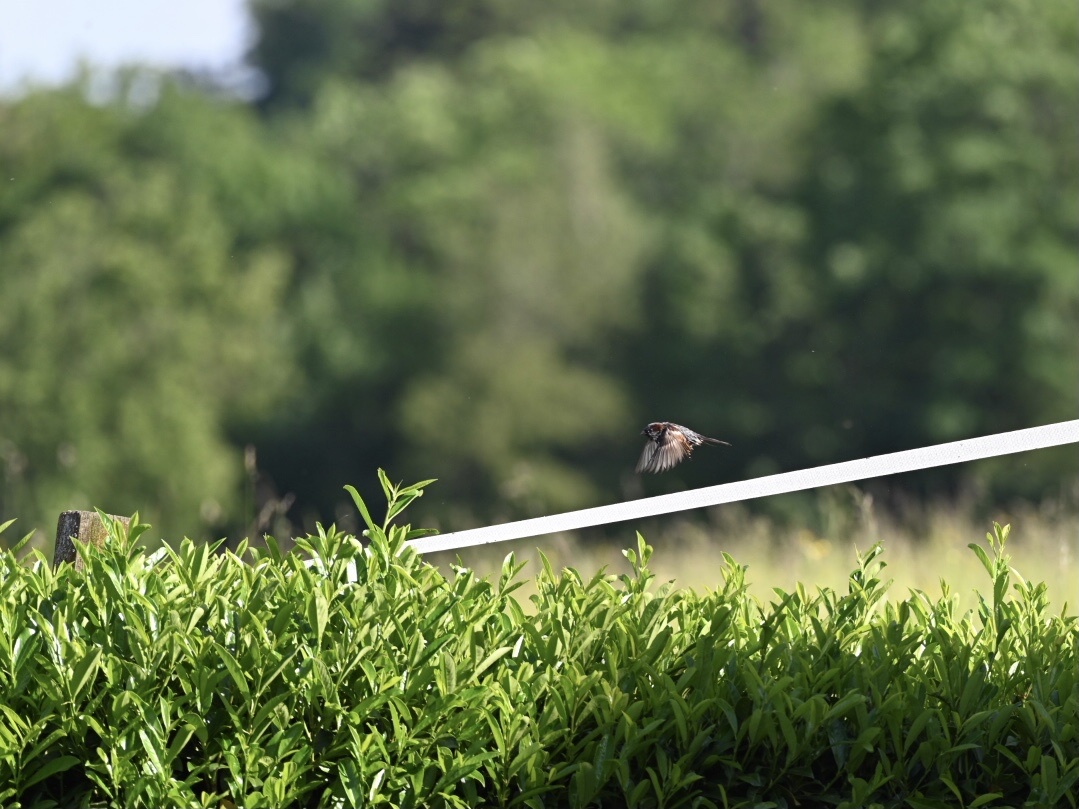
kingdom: Animalia
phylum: Chordata
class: Aves
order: Passeriformes
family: Passeridae
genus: Passer
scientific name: Passer domesticus
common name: House sparrow
